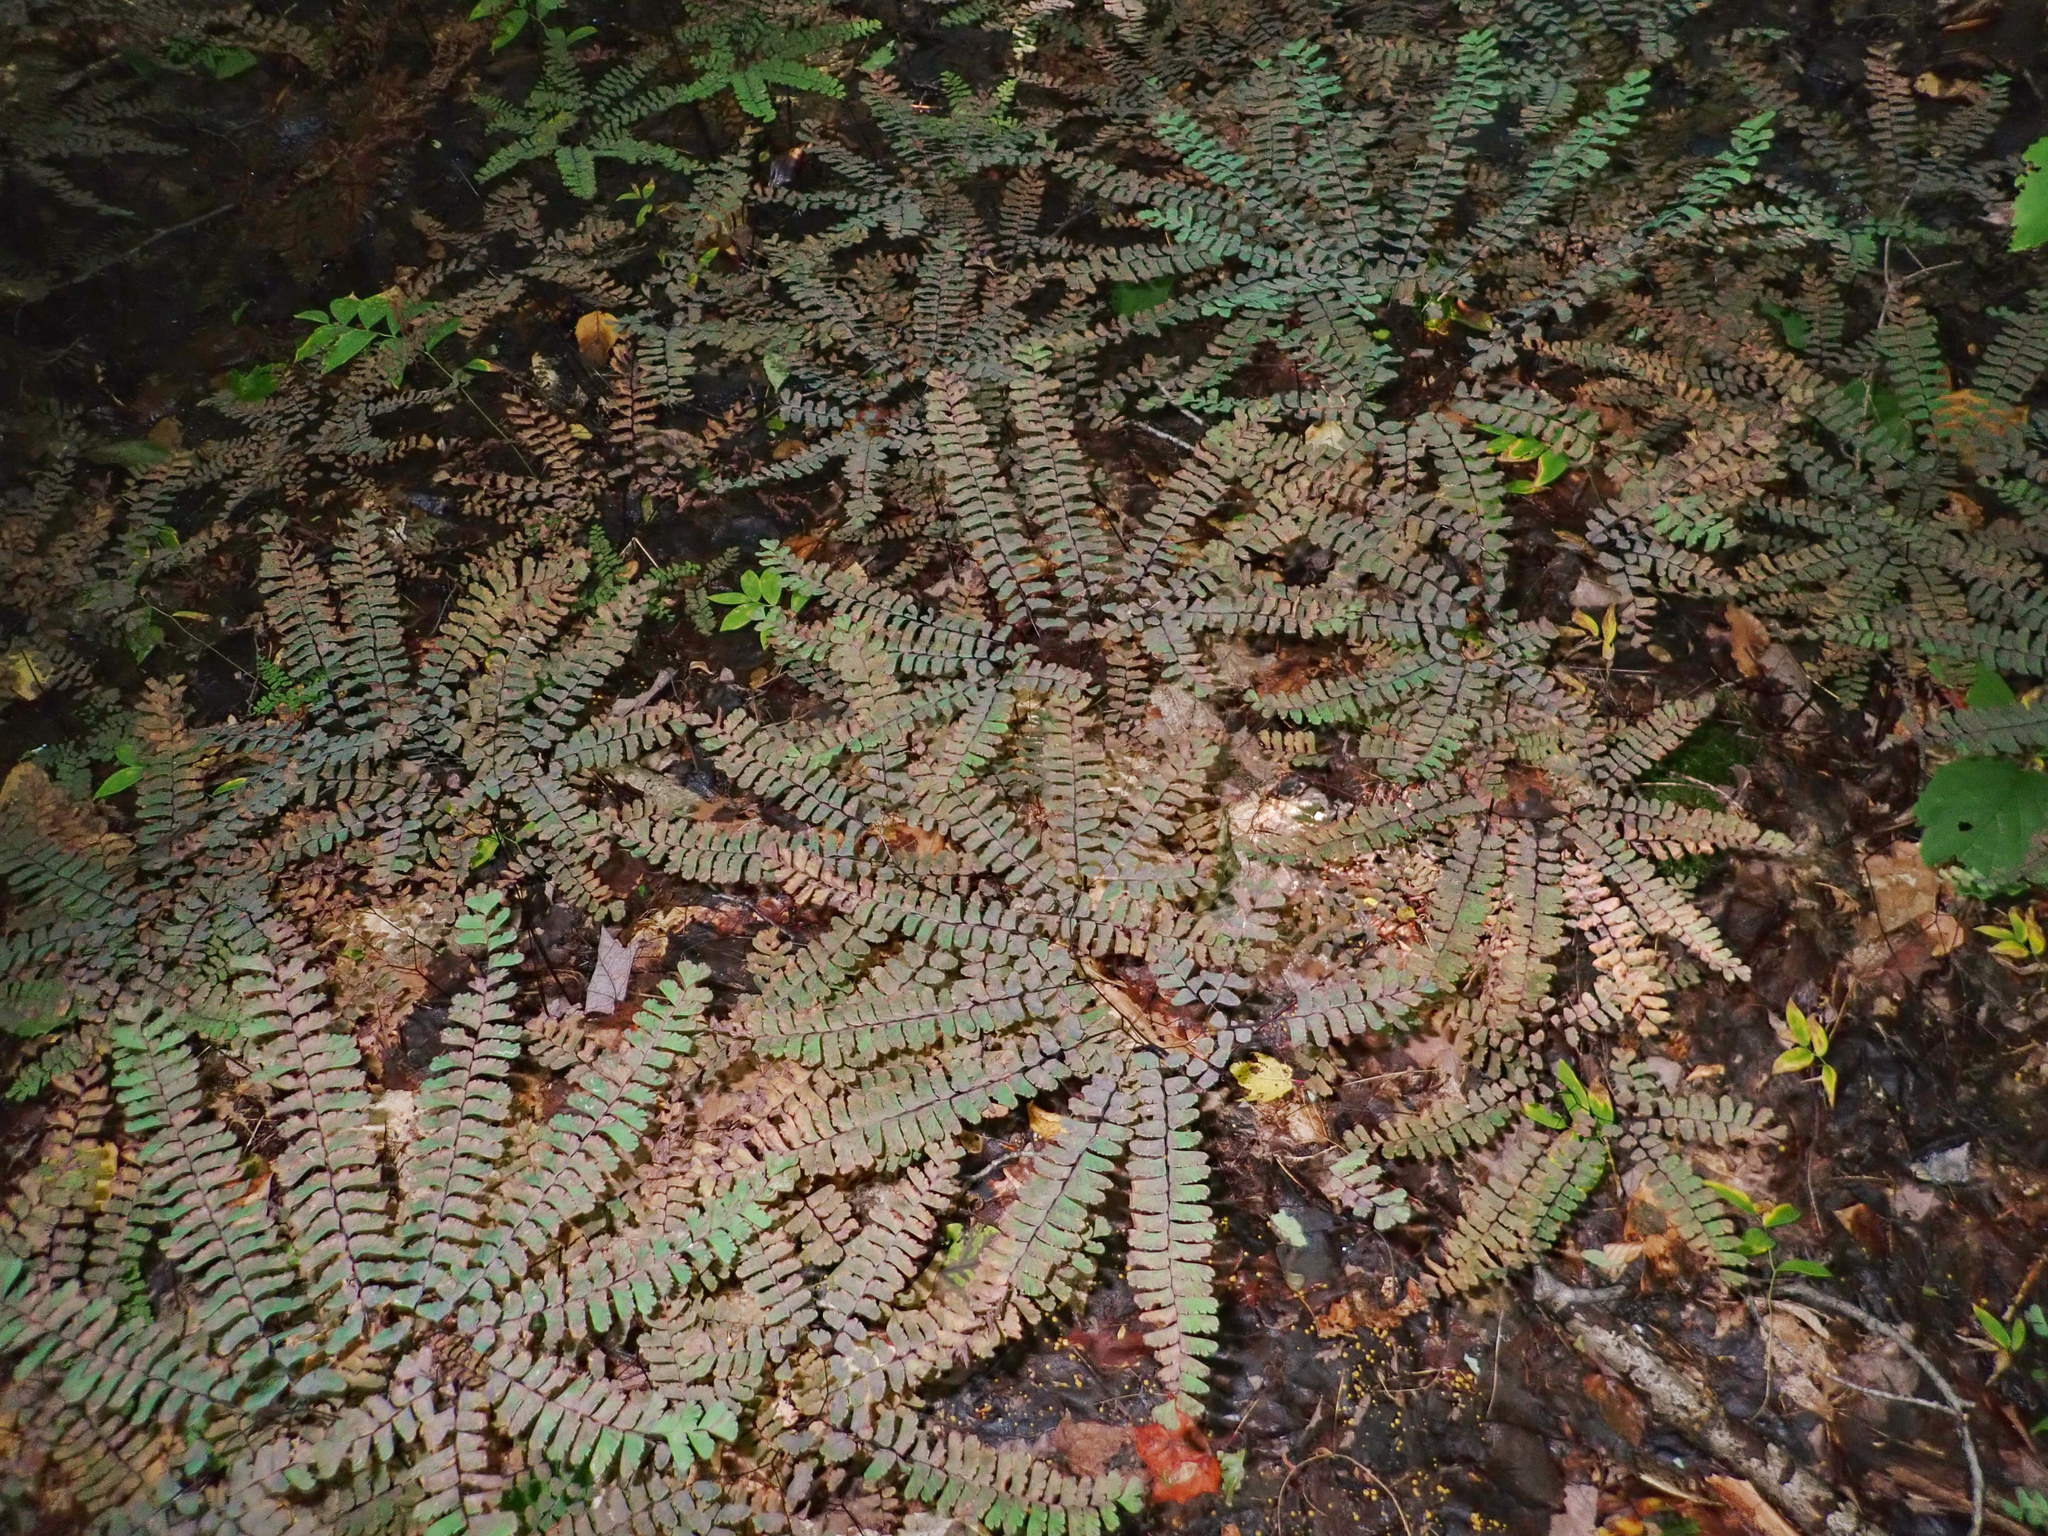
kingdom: Plantae
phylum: Tracheophyta
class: Polypodiopsida
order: Polypodiales
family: Pteridaceae
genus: Adiantum
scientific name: Adiantum pedatum
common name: Five-finger fern
